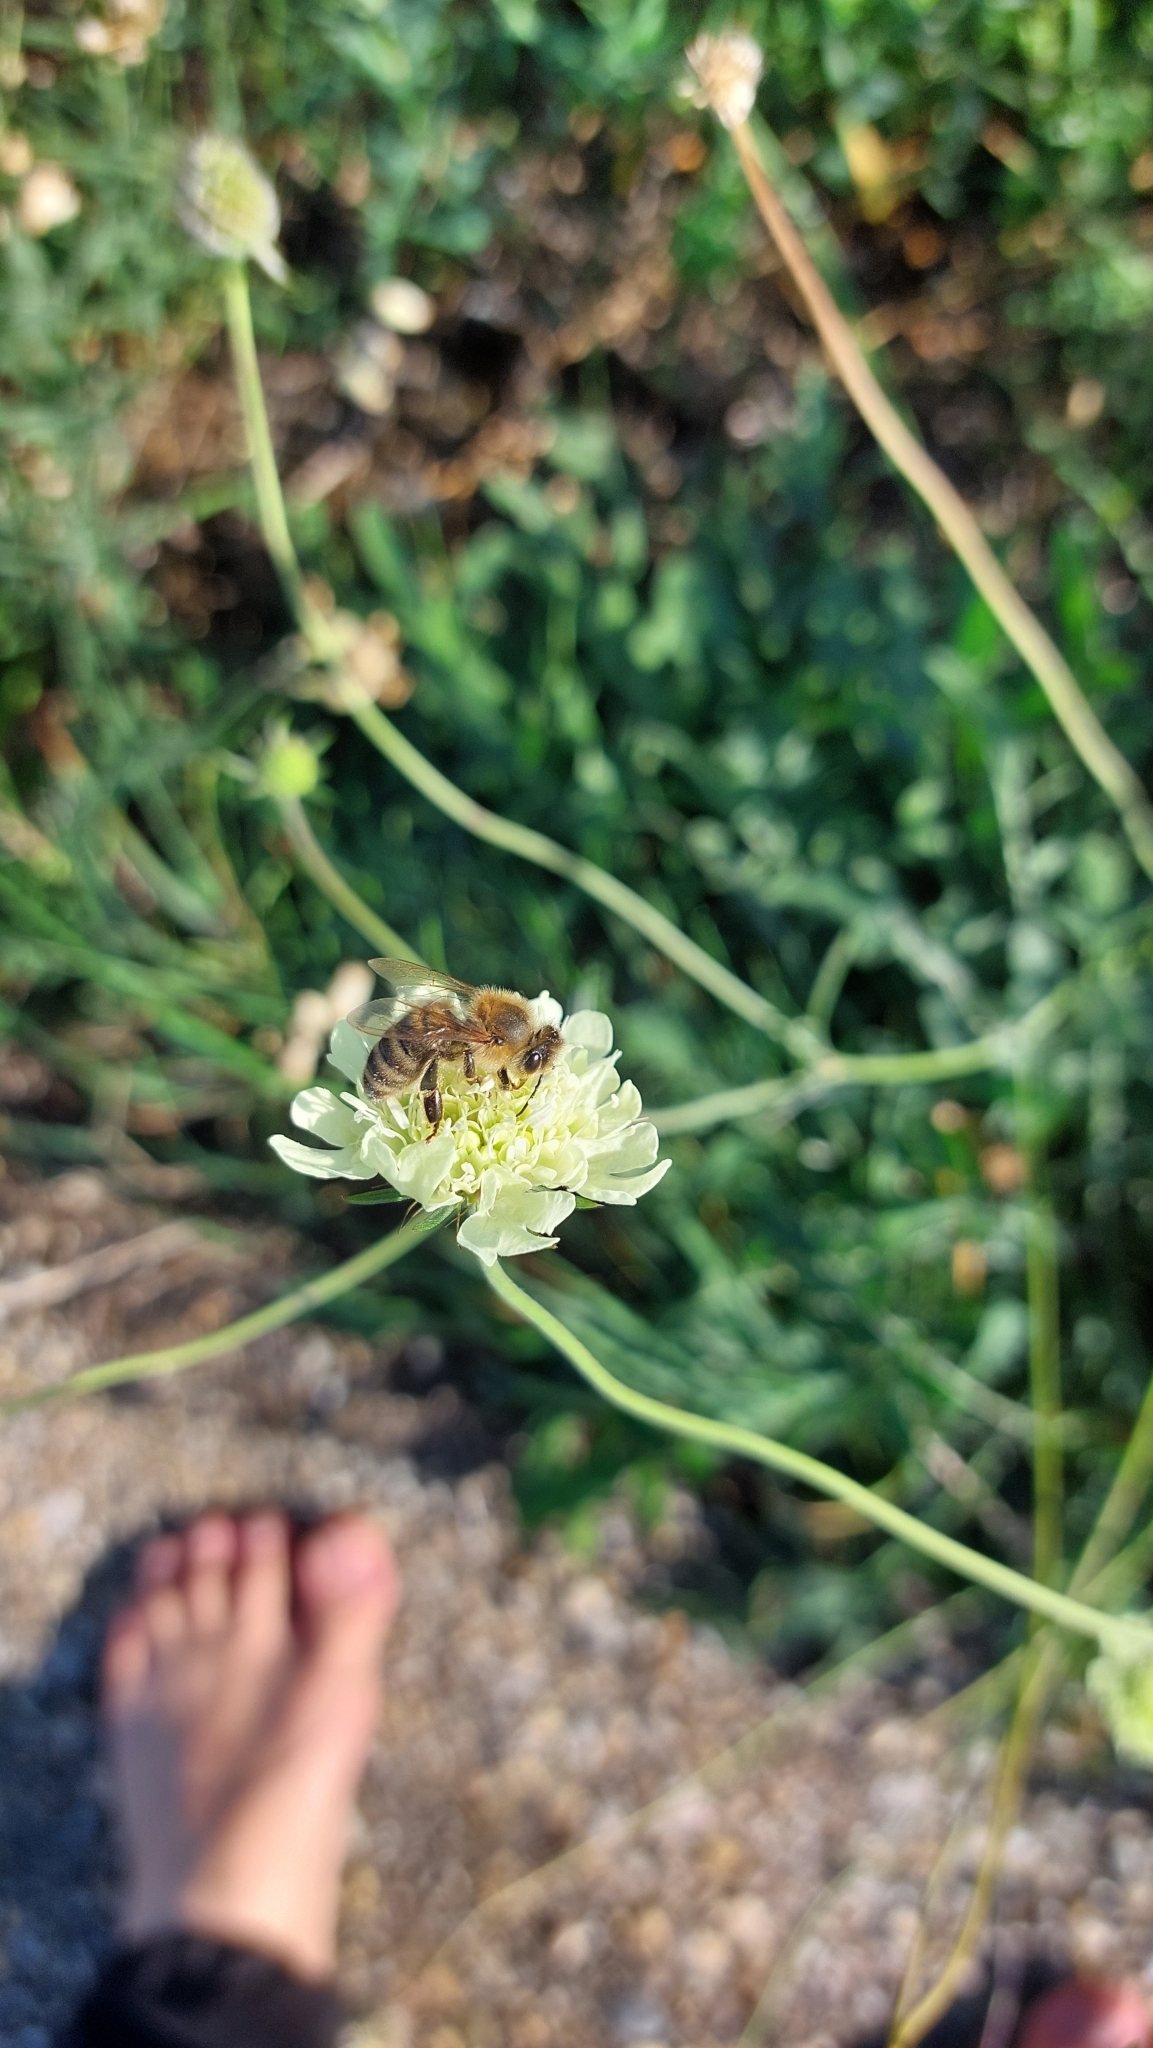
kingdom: Animalia
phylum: Arthropoda
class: Insecta
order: Hymenoptera
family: Apidae
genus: Apis
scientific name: Apis mellifera
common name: Honey bee
